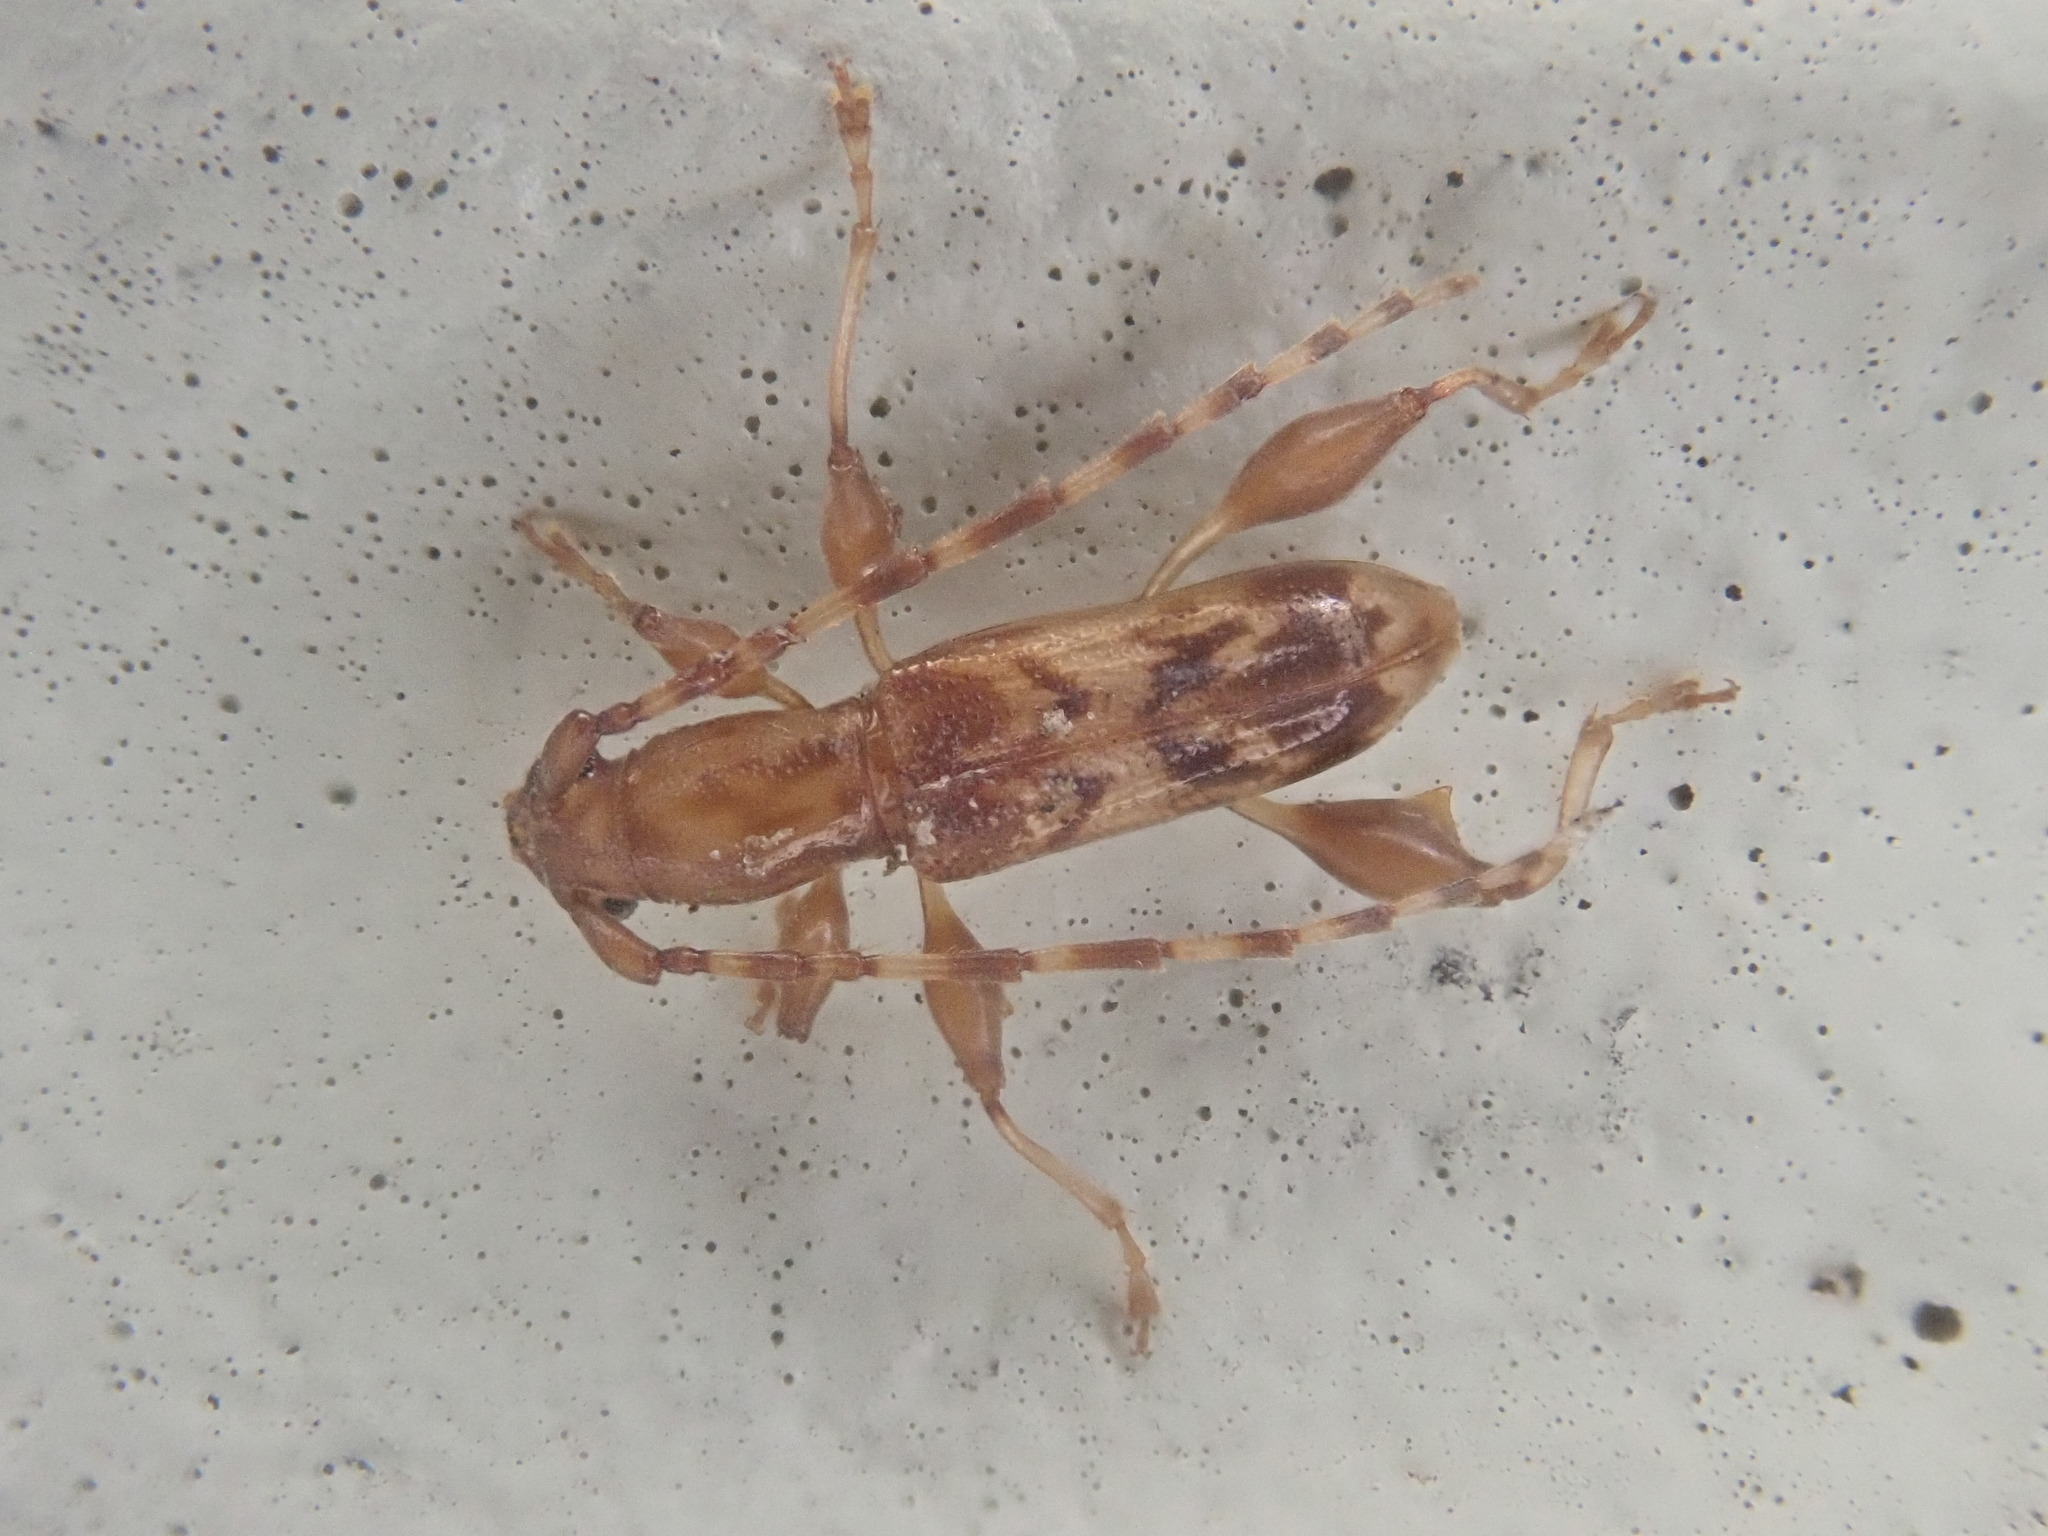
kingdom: Animalia
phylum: Arthropoda
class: Insecta
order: Coleoptera
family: Cerambycidae
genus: Plectromerus
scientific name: Plectromerus dentipes
